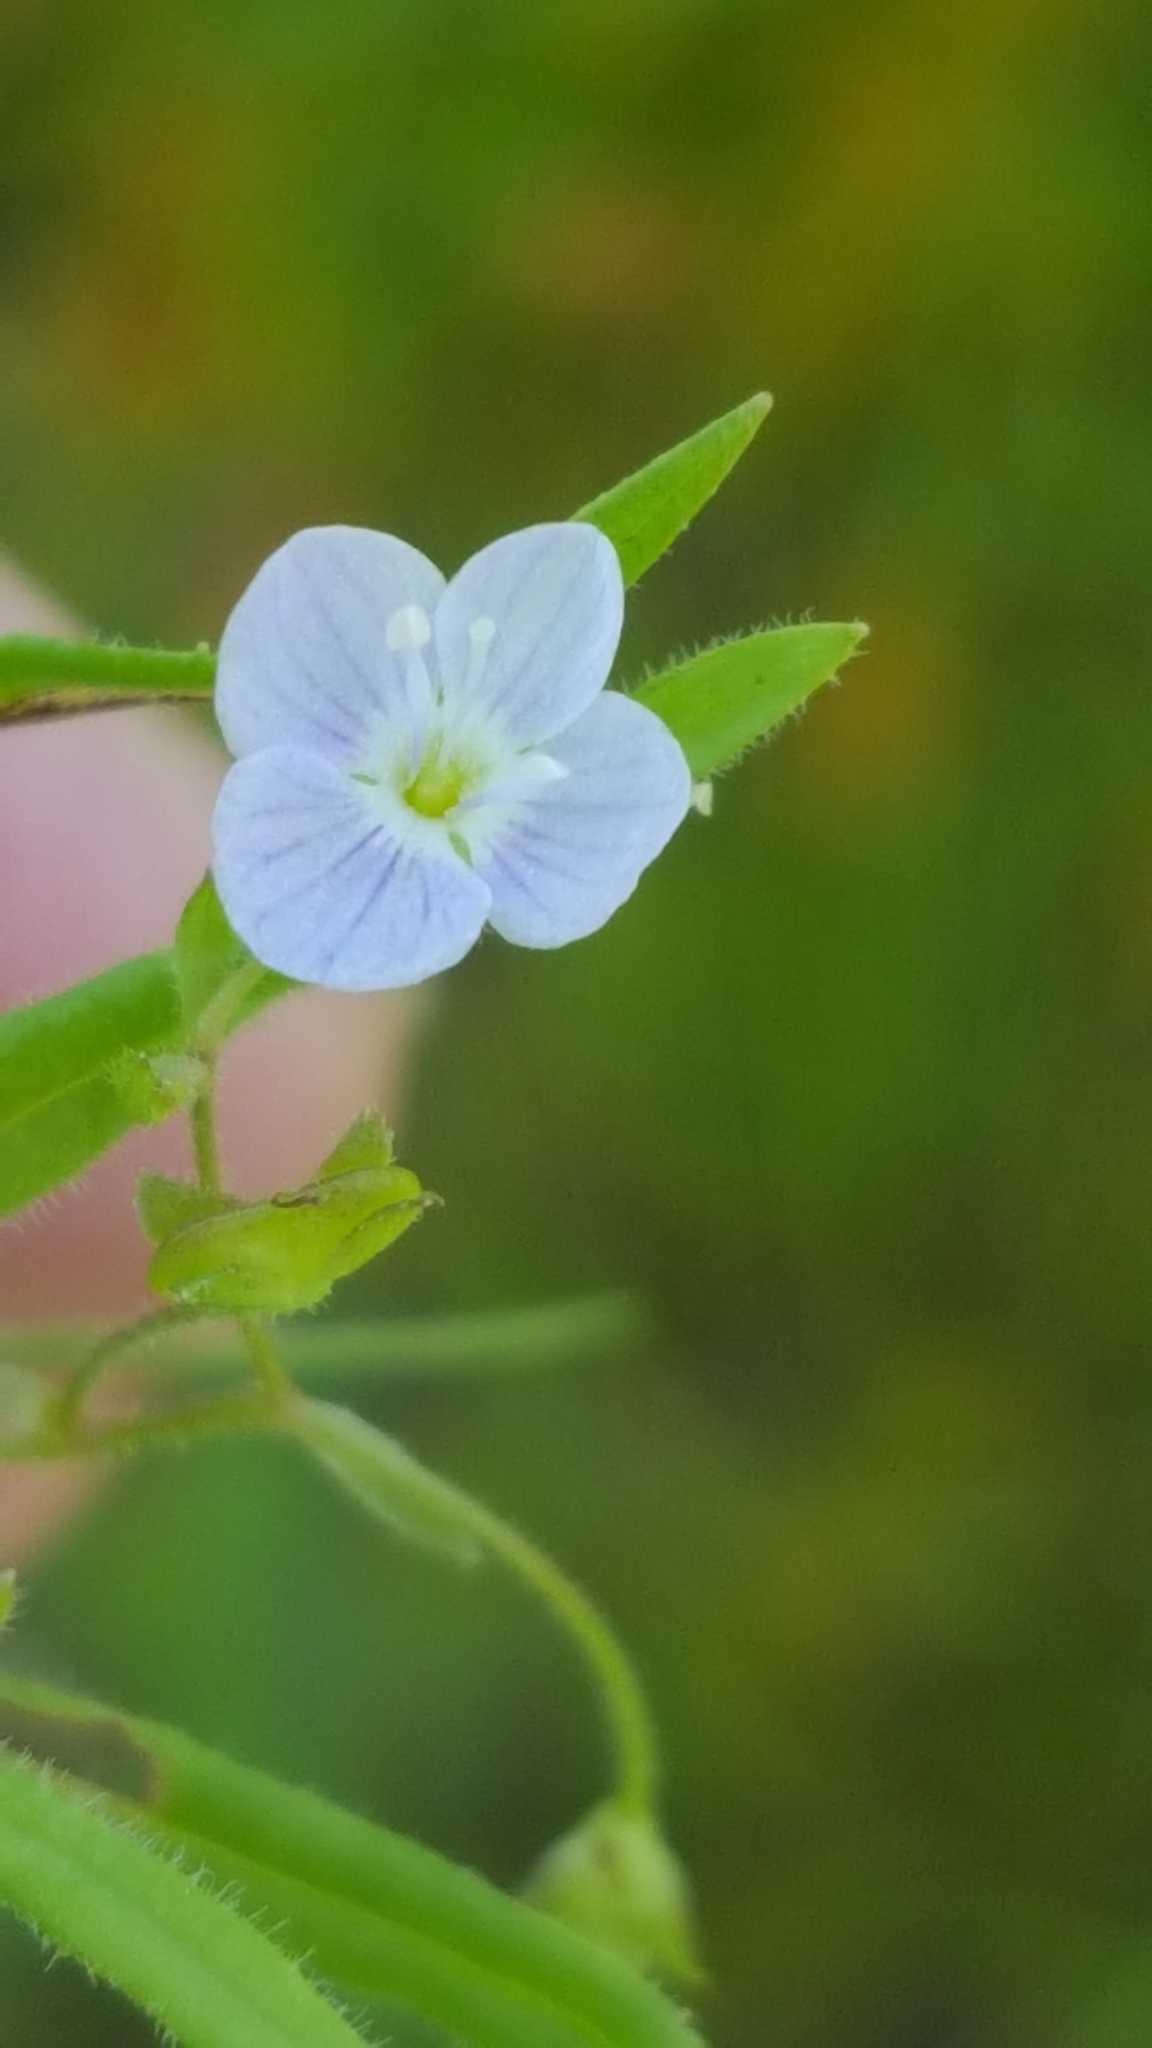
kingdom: Plantae
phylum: Tracheophyta
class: Magnoliopsida
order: Lamiales
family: Plantaginaceae
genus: Veronica
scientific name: Veronica scutellata
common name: Marsh speedwell
